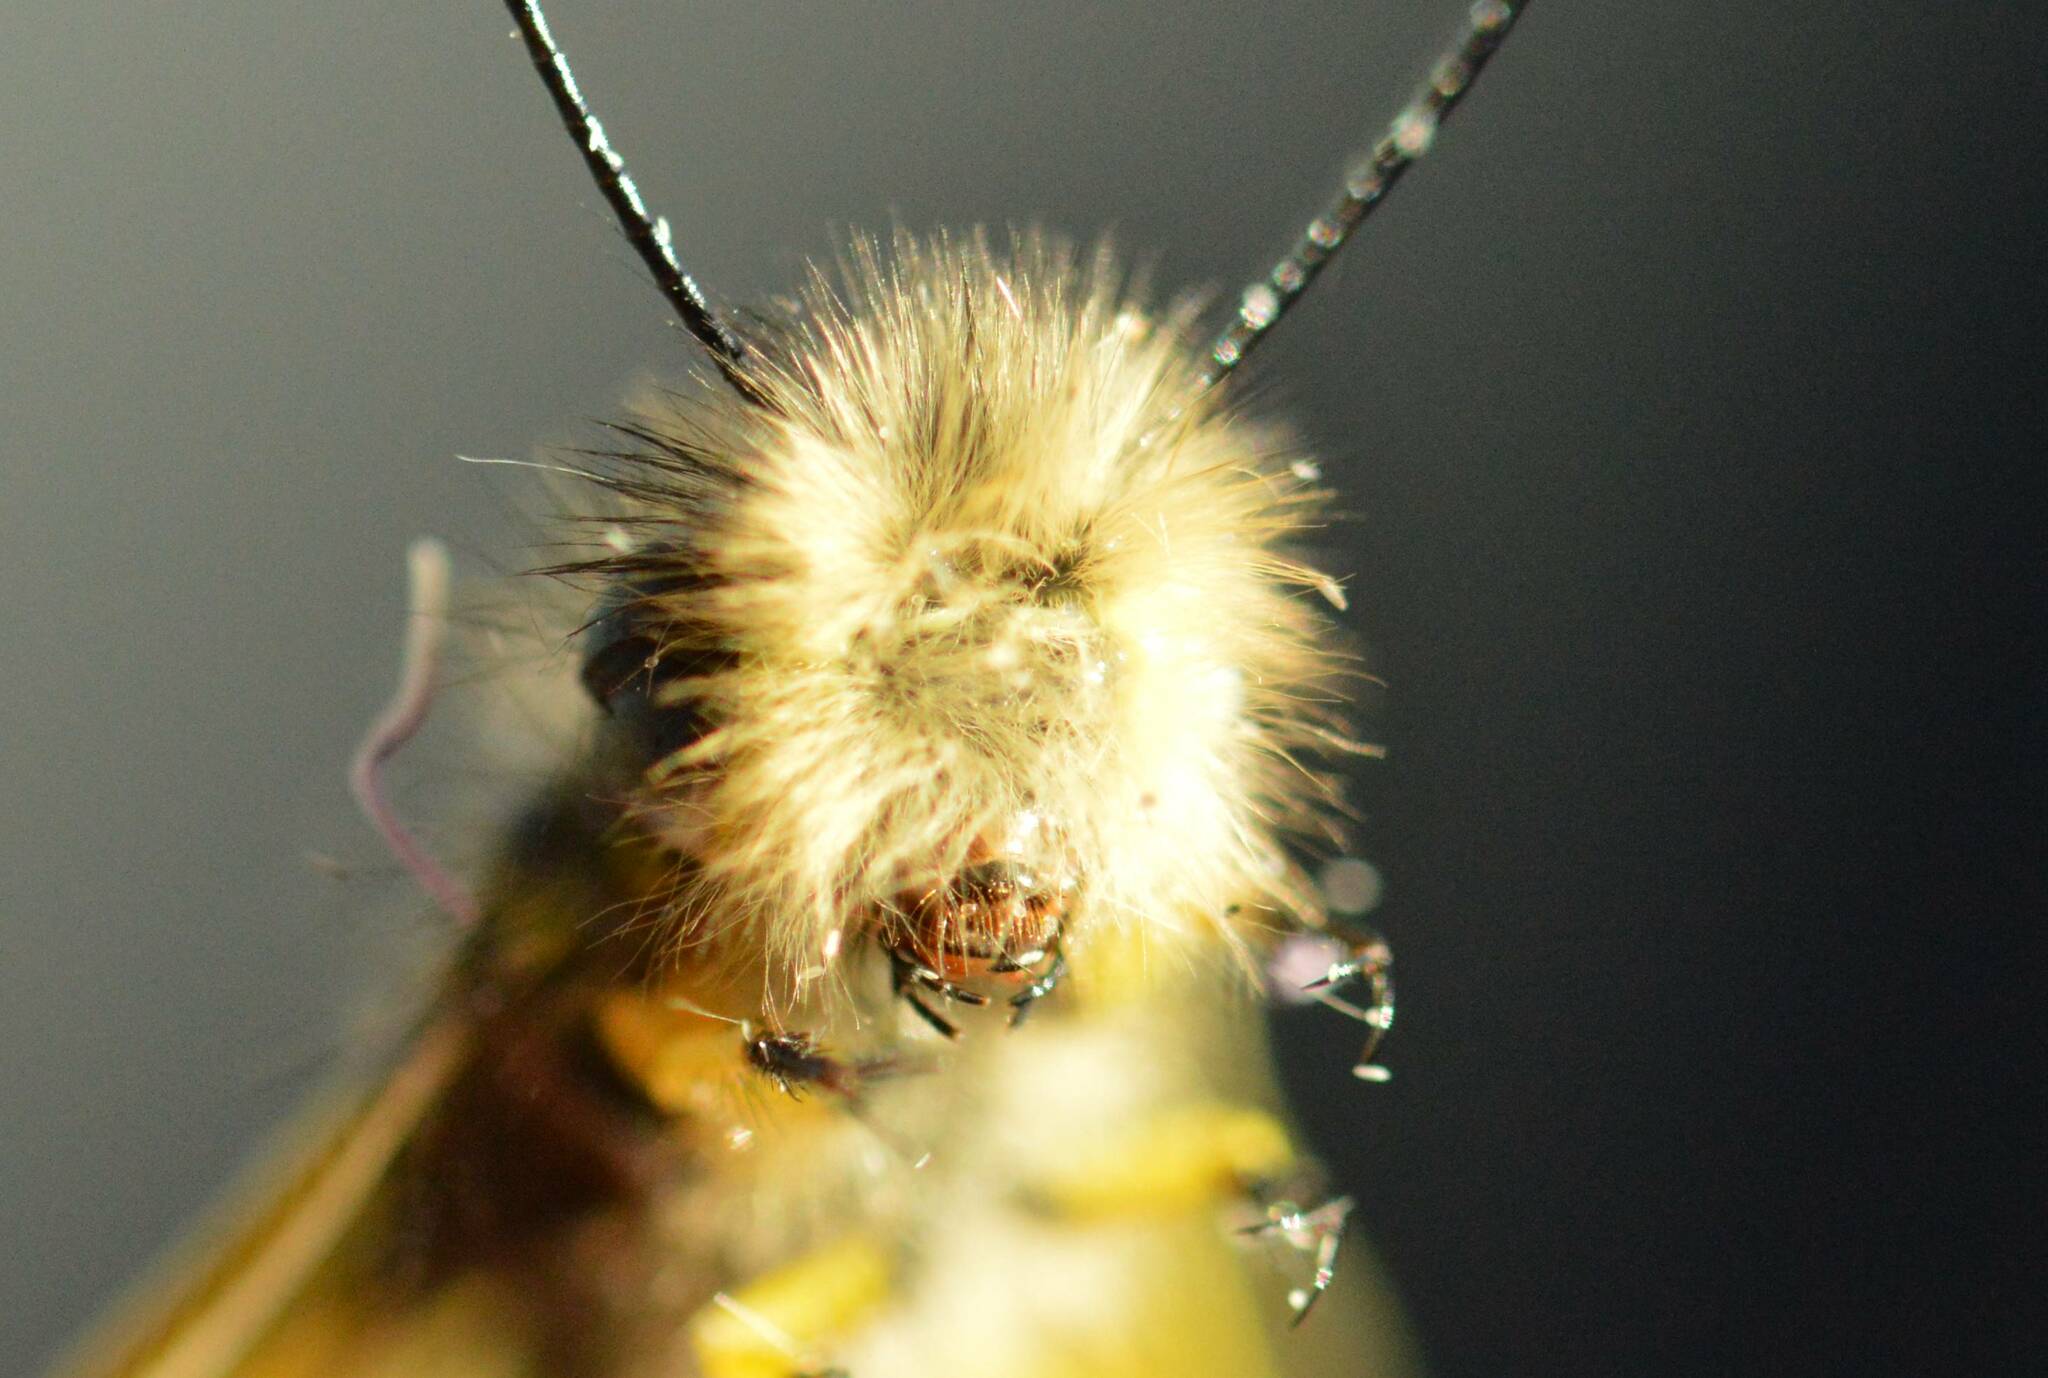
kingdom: Animalia
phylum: Arthropoda
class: Insecta
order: Neuroptera
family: Ascalaphidae
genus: Libelloides
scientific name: Libelloides ictericus
